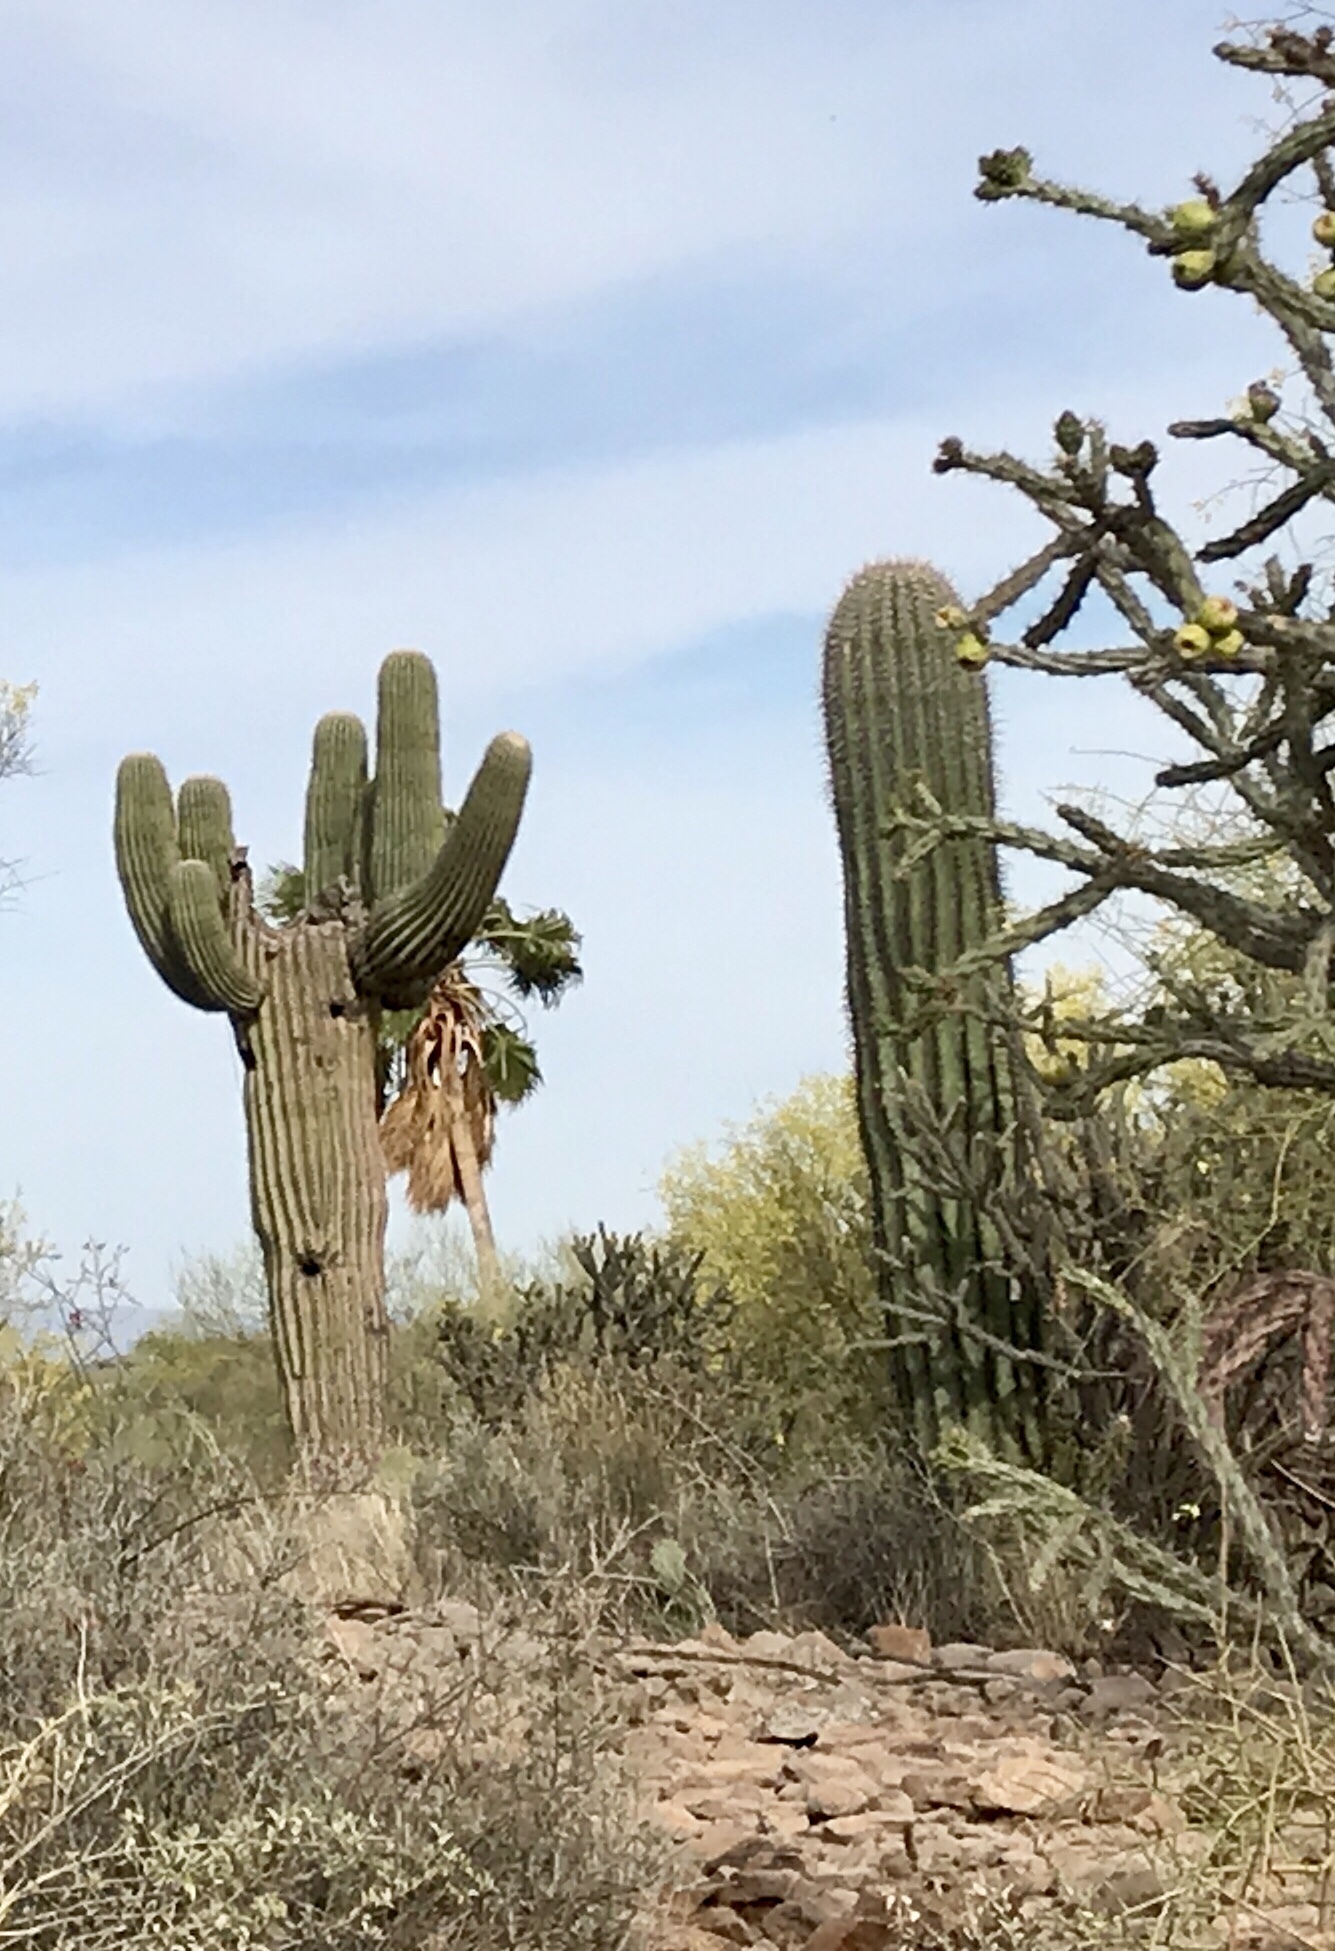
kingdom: Plantae
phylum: Tracheophyta
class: Magnoliopsida
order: Caryophyllales
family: Cactaceae
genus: Carnegiea
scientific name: Carnegiea gigantea
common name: Saguaro
